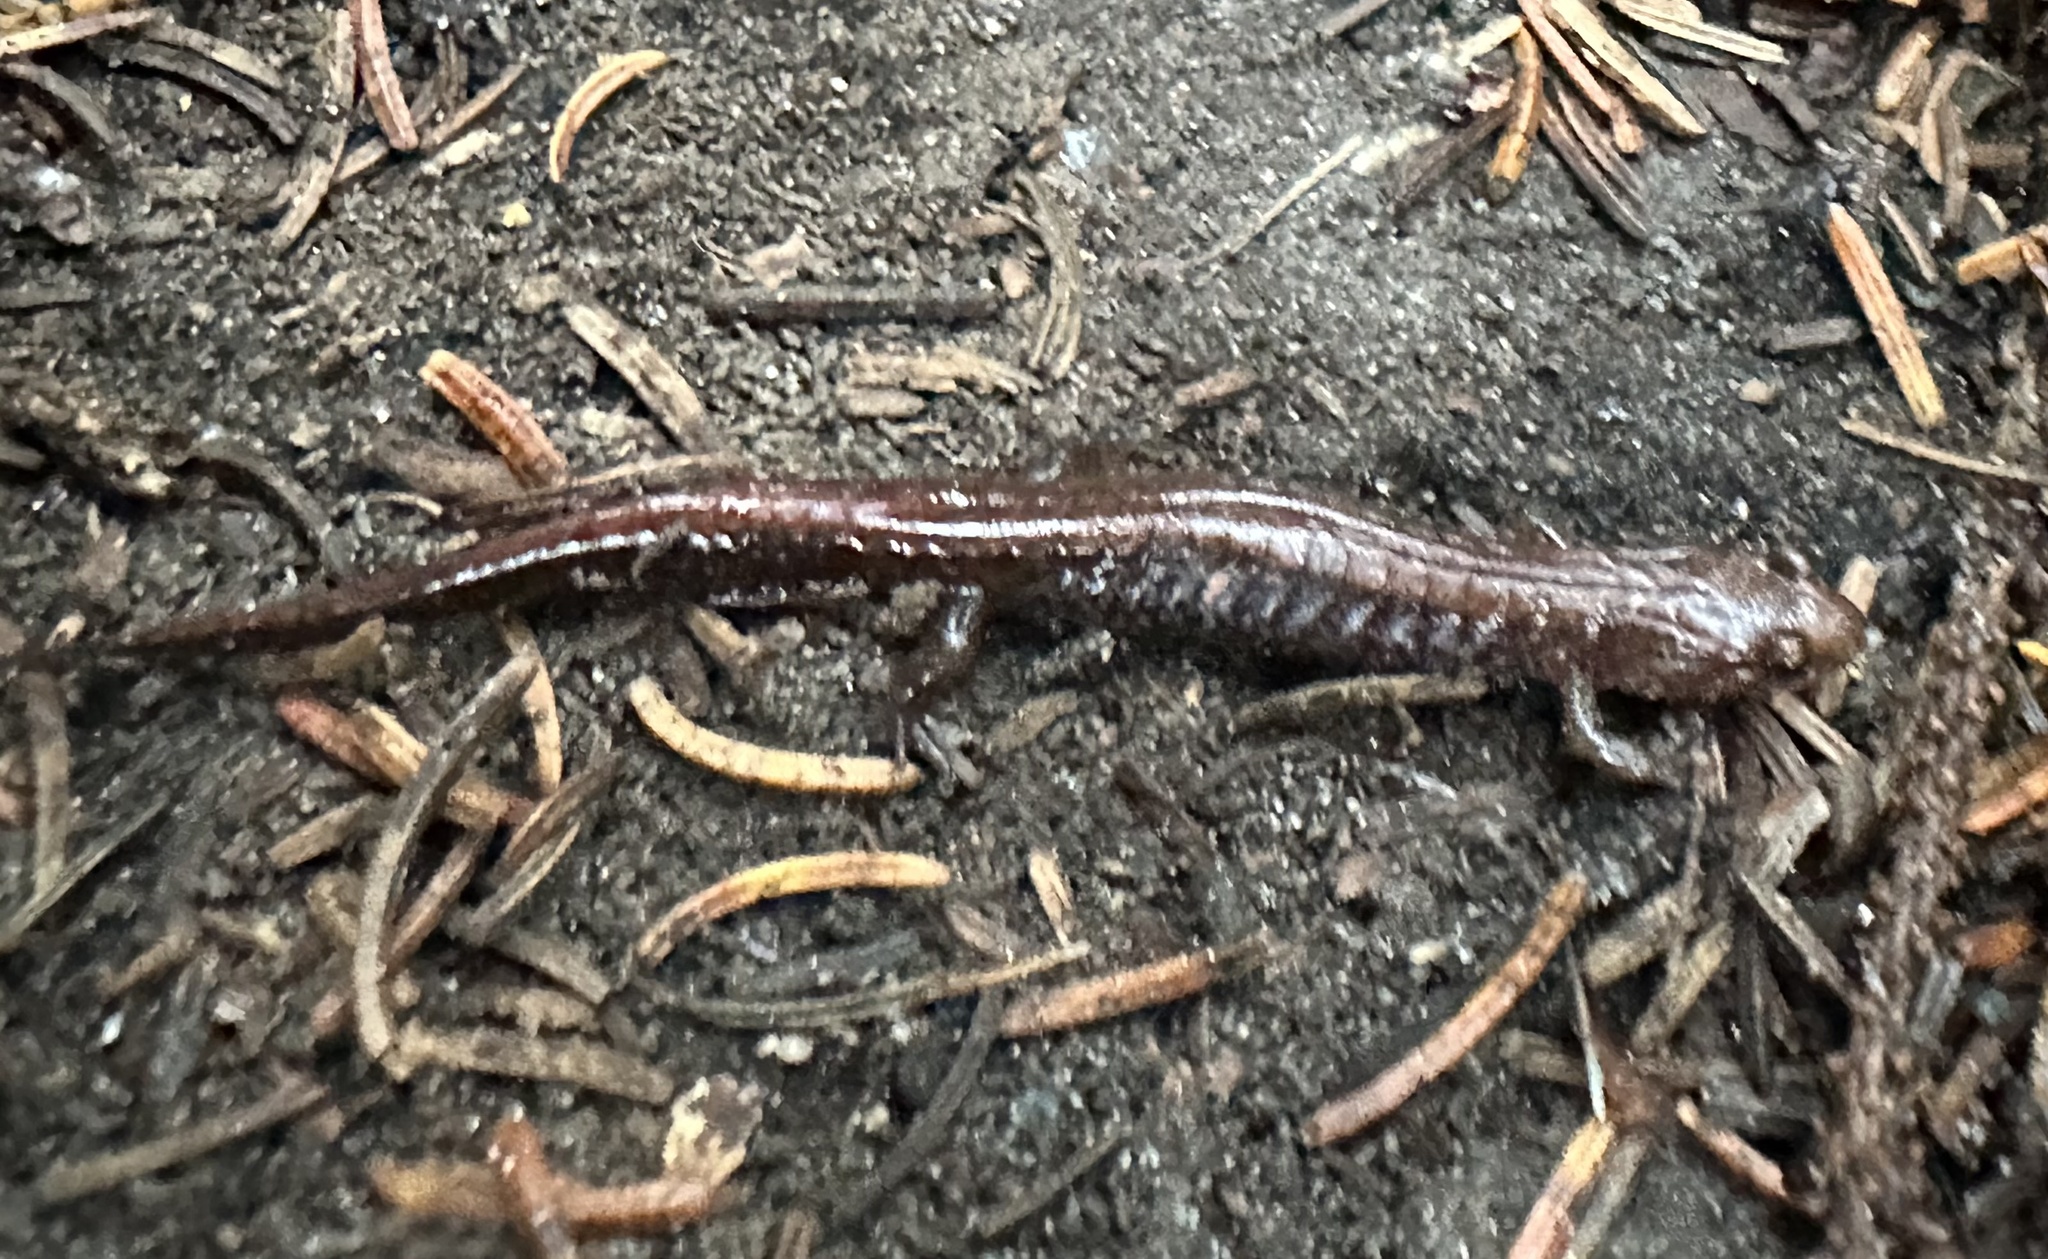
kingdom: Animalia
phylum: Chordata
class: Amphibia
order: Caudata
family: Plethodontidae
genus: Desmognathus
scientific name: Desmognathus orestes
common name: Blue ridge dusky salamander
